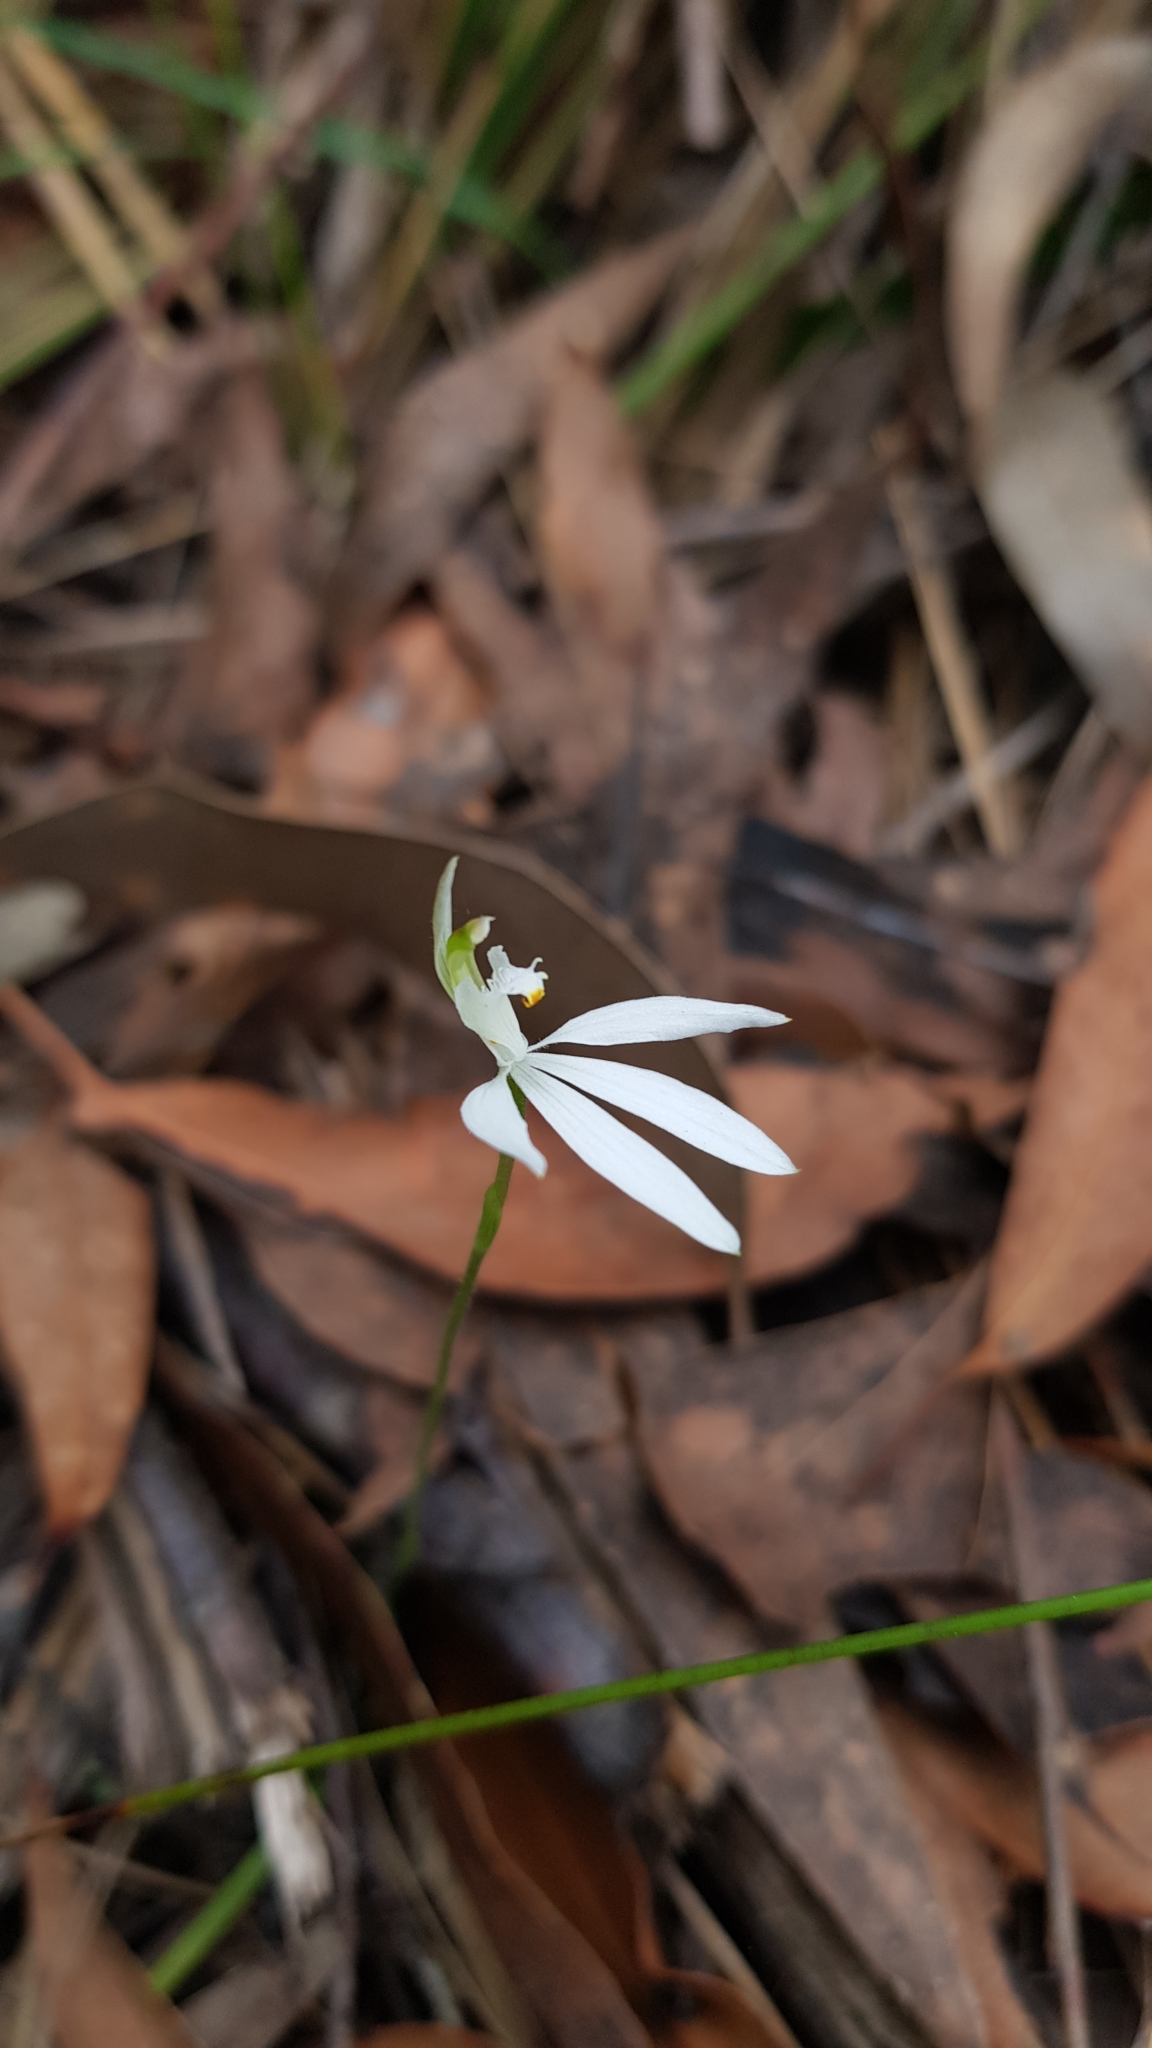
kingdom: Plantae
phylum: Tracheophyta
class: Liliopsida
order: Asparagales
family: Orchidaceae
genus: Caladenia
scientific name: Caladenia catenata
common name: White caladenia
